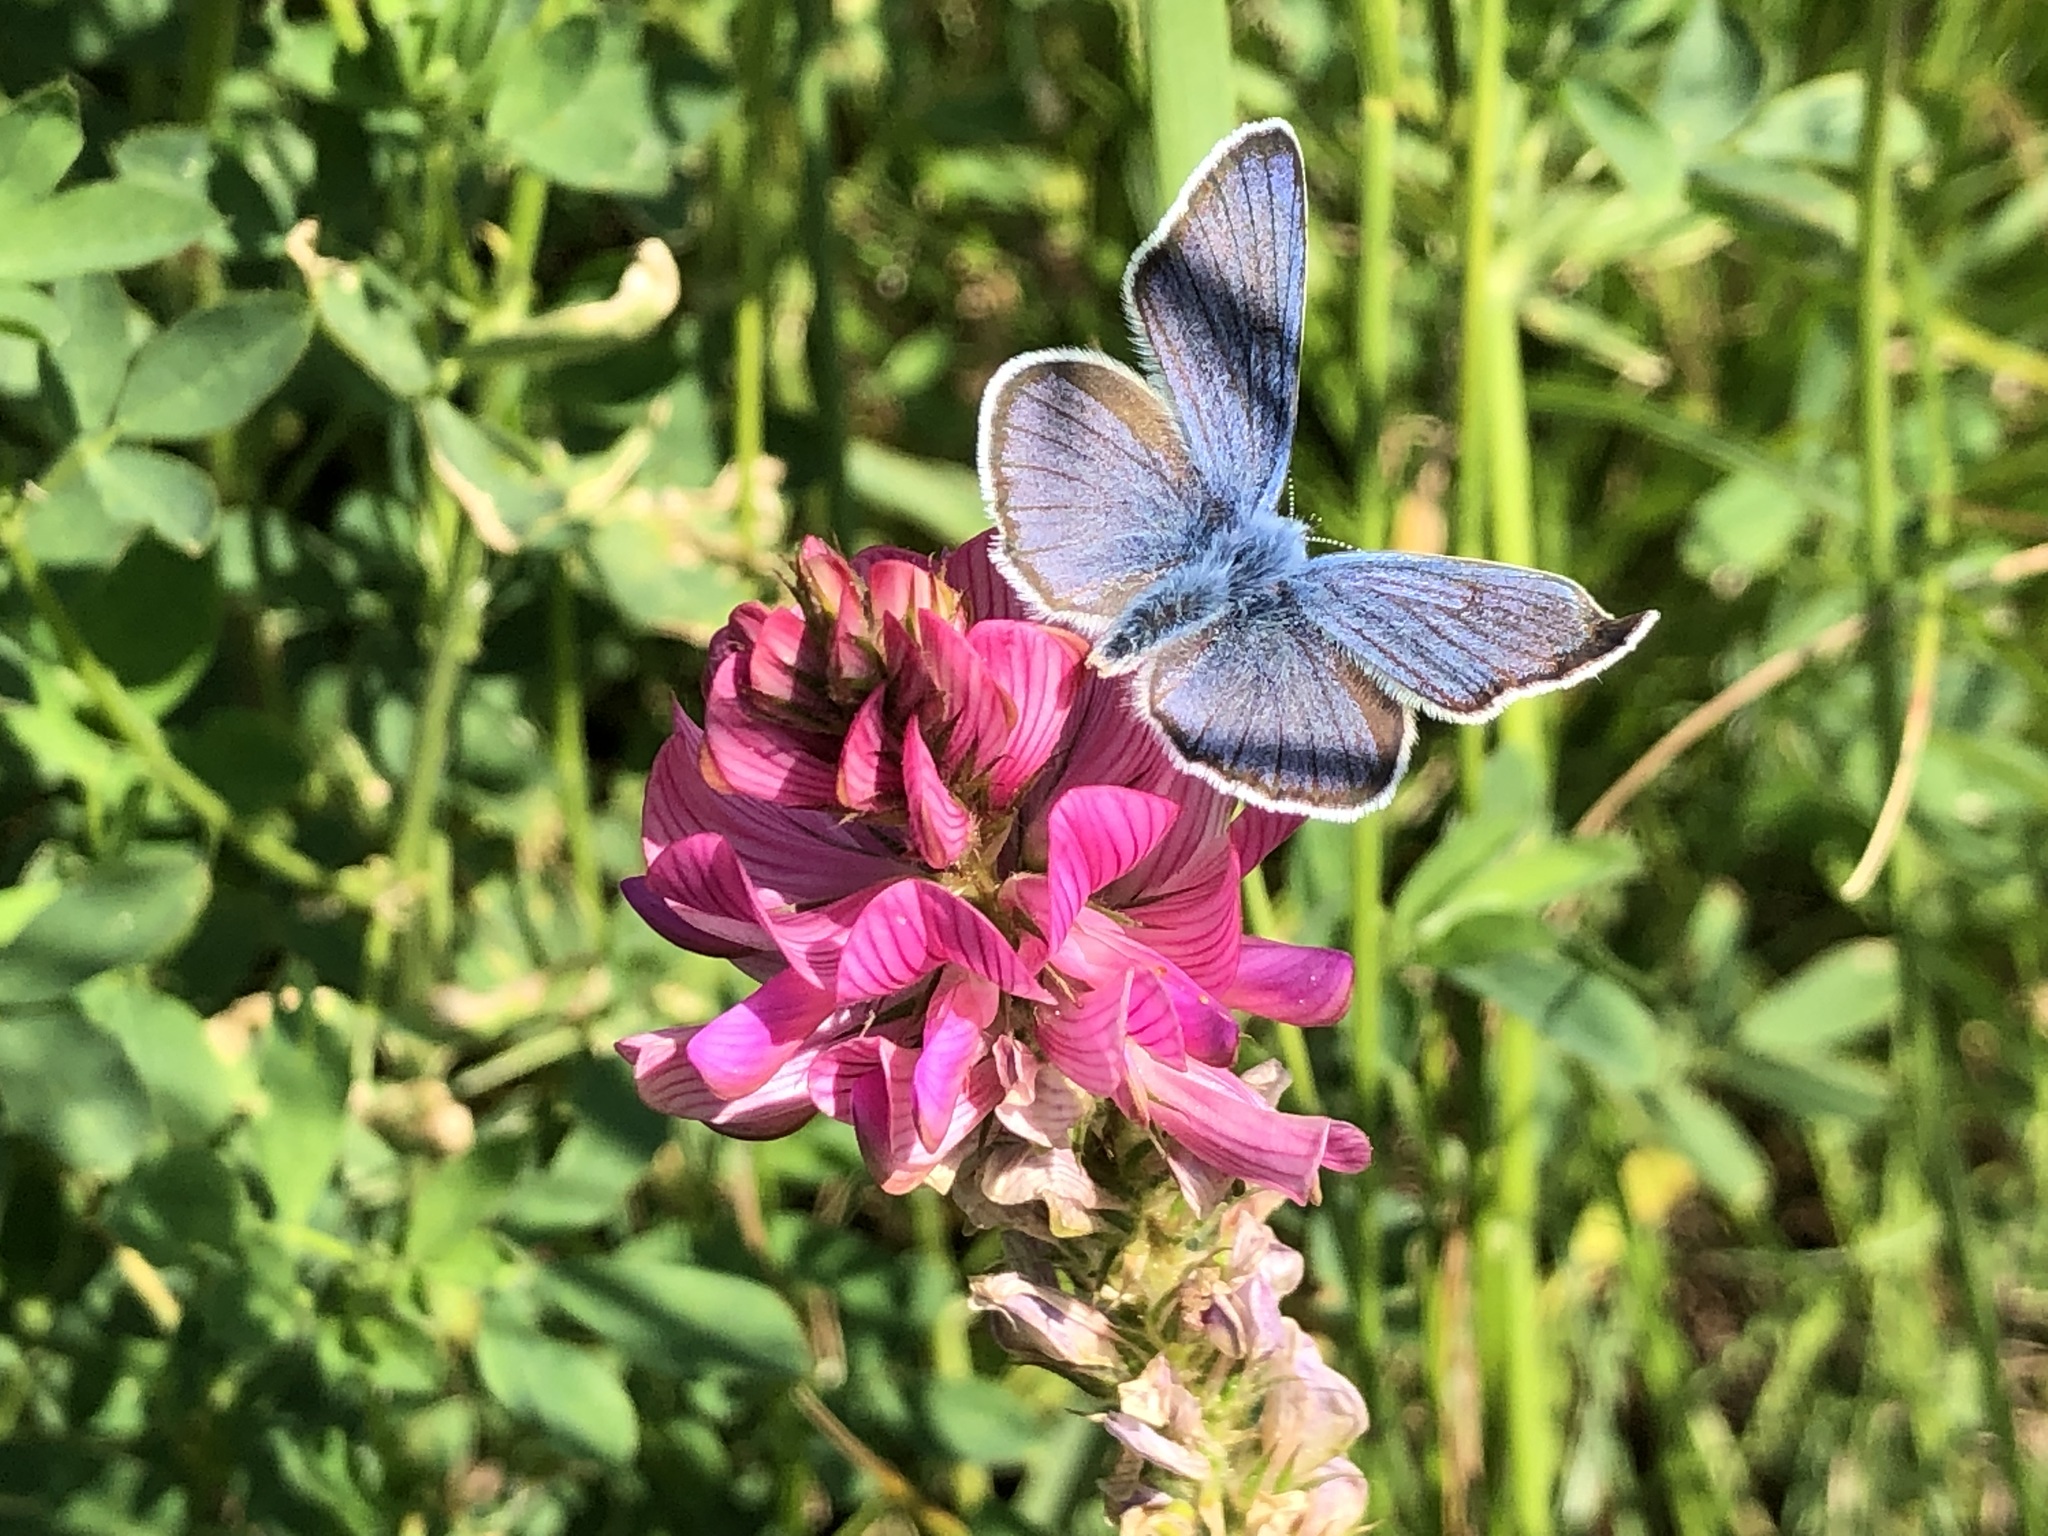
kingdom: Animalia
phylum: Arthropoda
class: Insecta
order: Lepidoptera
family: Lycaenidae
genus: Cyaniris
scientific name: Cyaniris semiargus
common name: Mazarine blue
